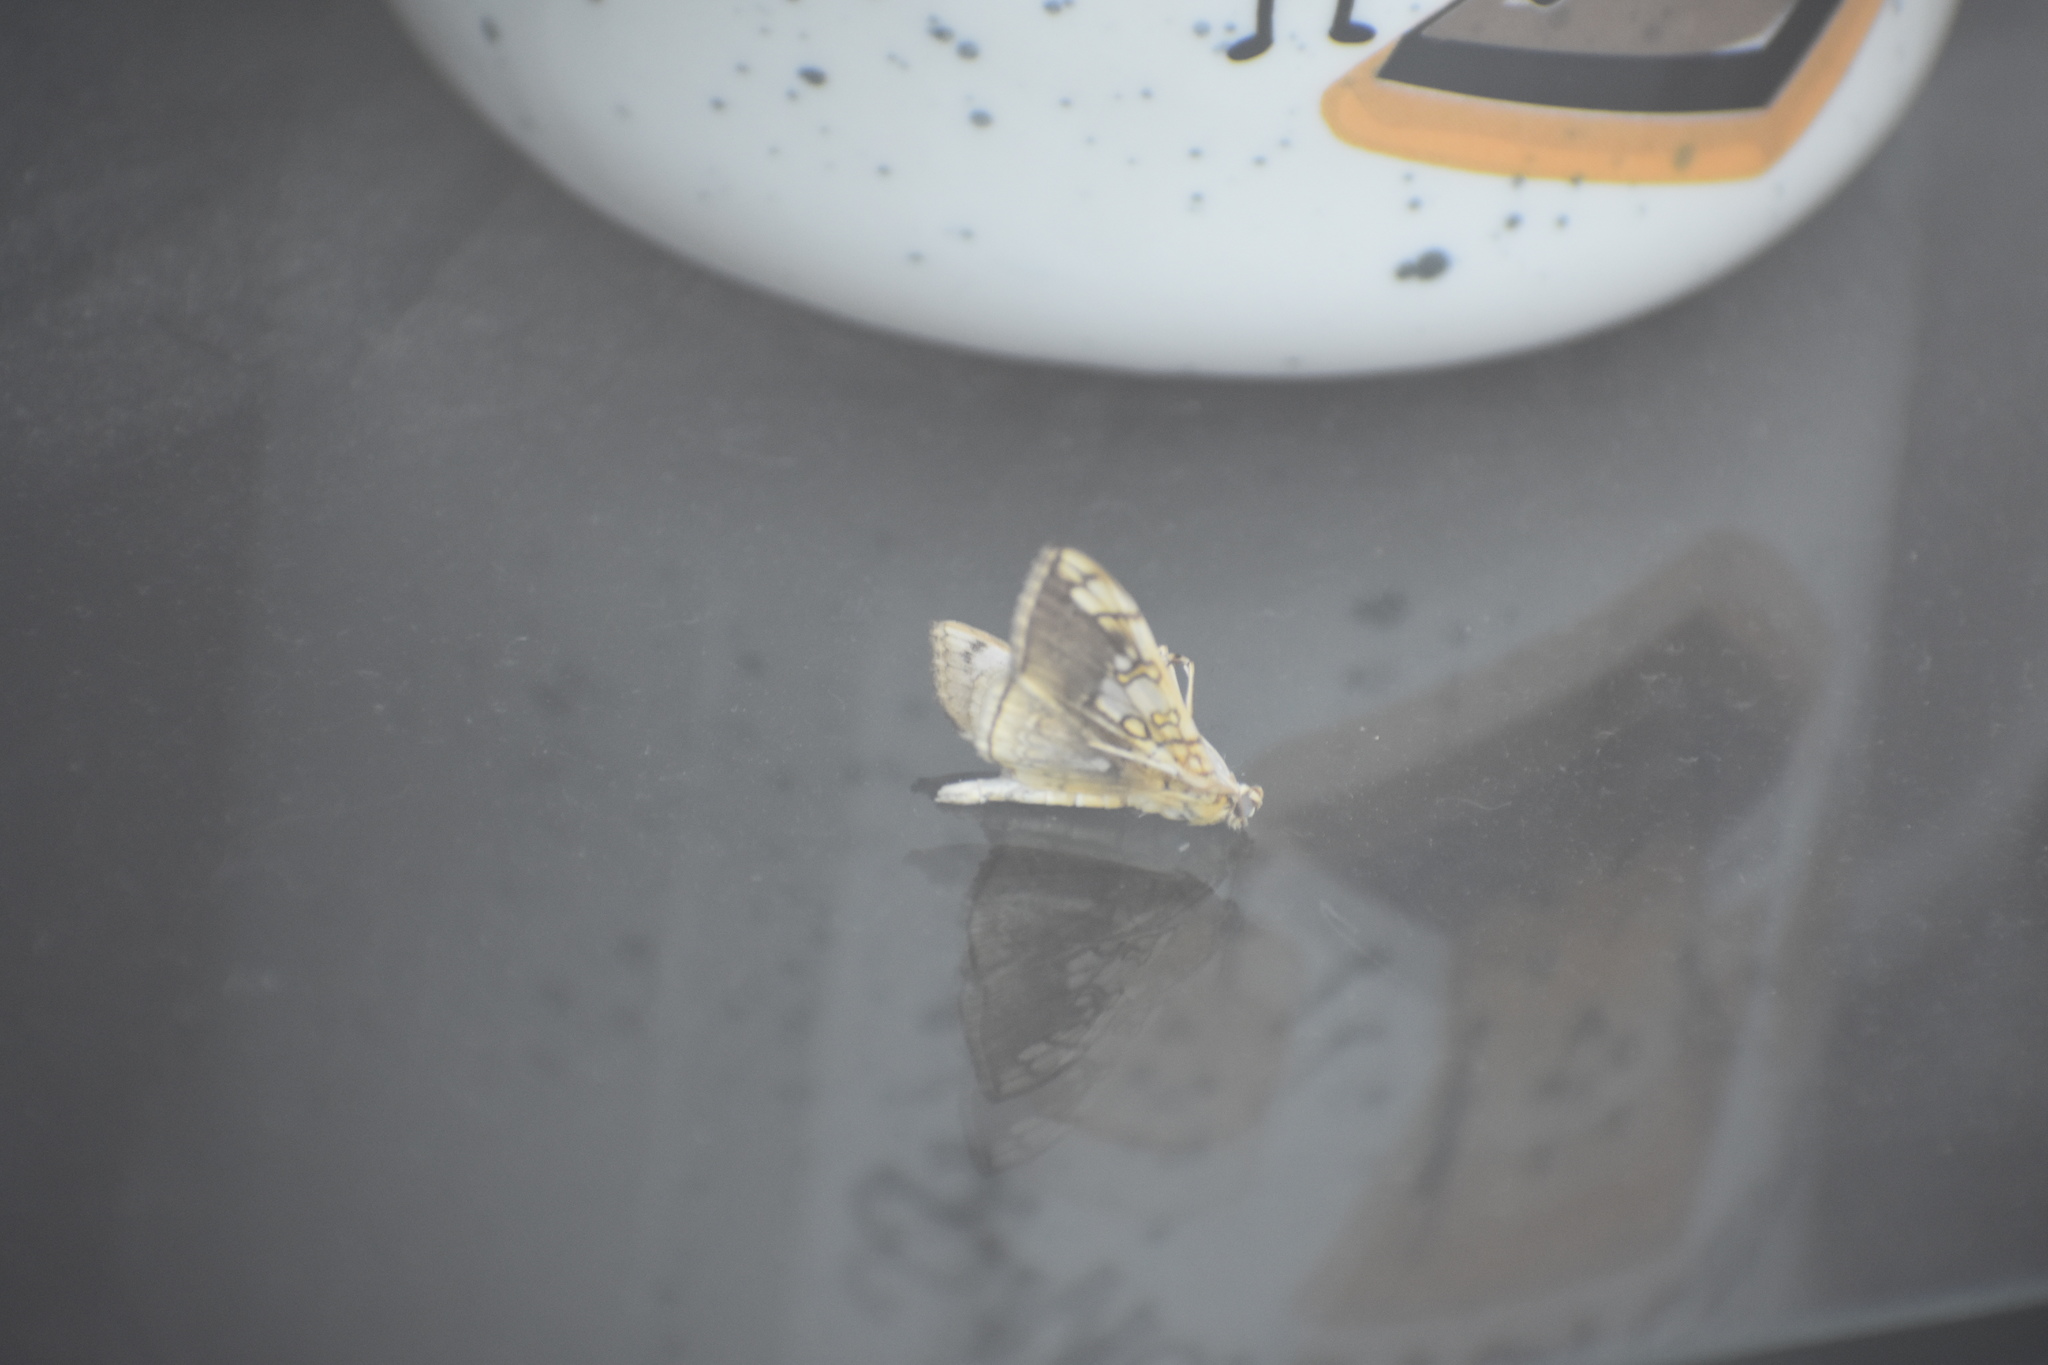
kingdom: Animalia
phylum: Arthropoda
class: Insecta
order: Lepidoptera
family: Crambidae
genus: Pantographa
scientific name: Pantographa limata
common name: Basswood leafroller moth
